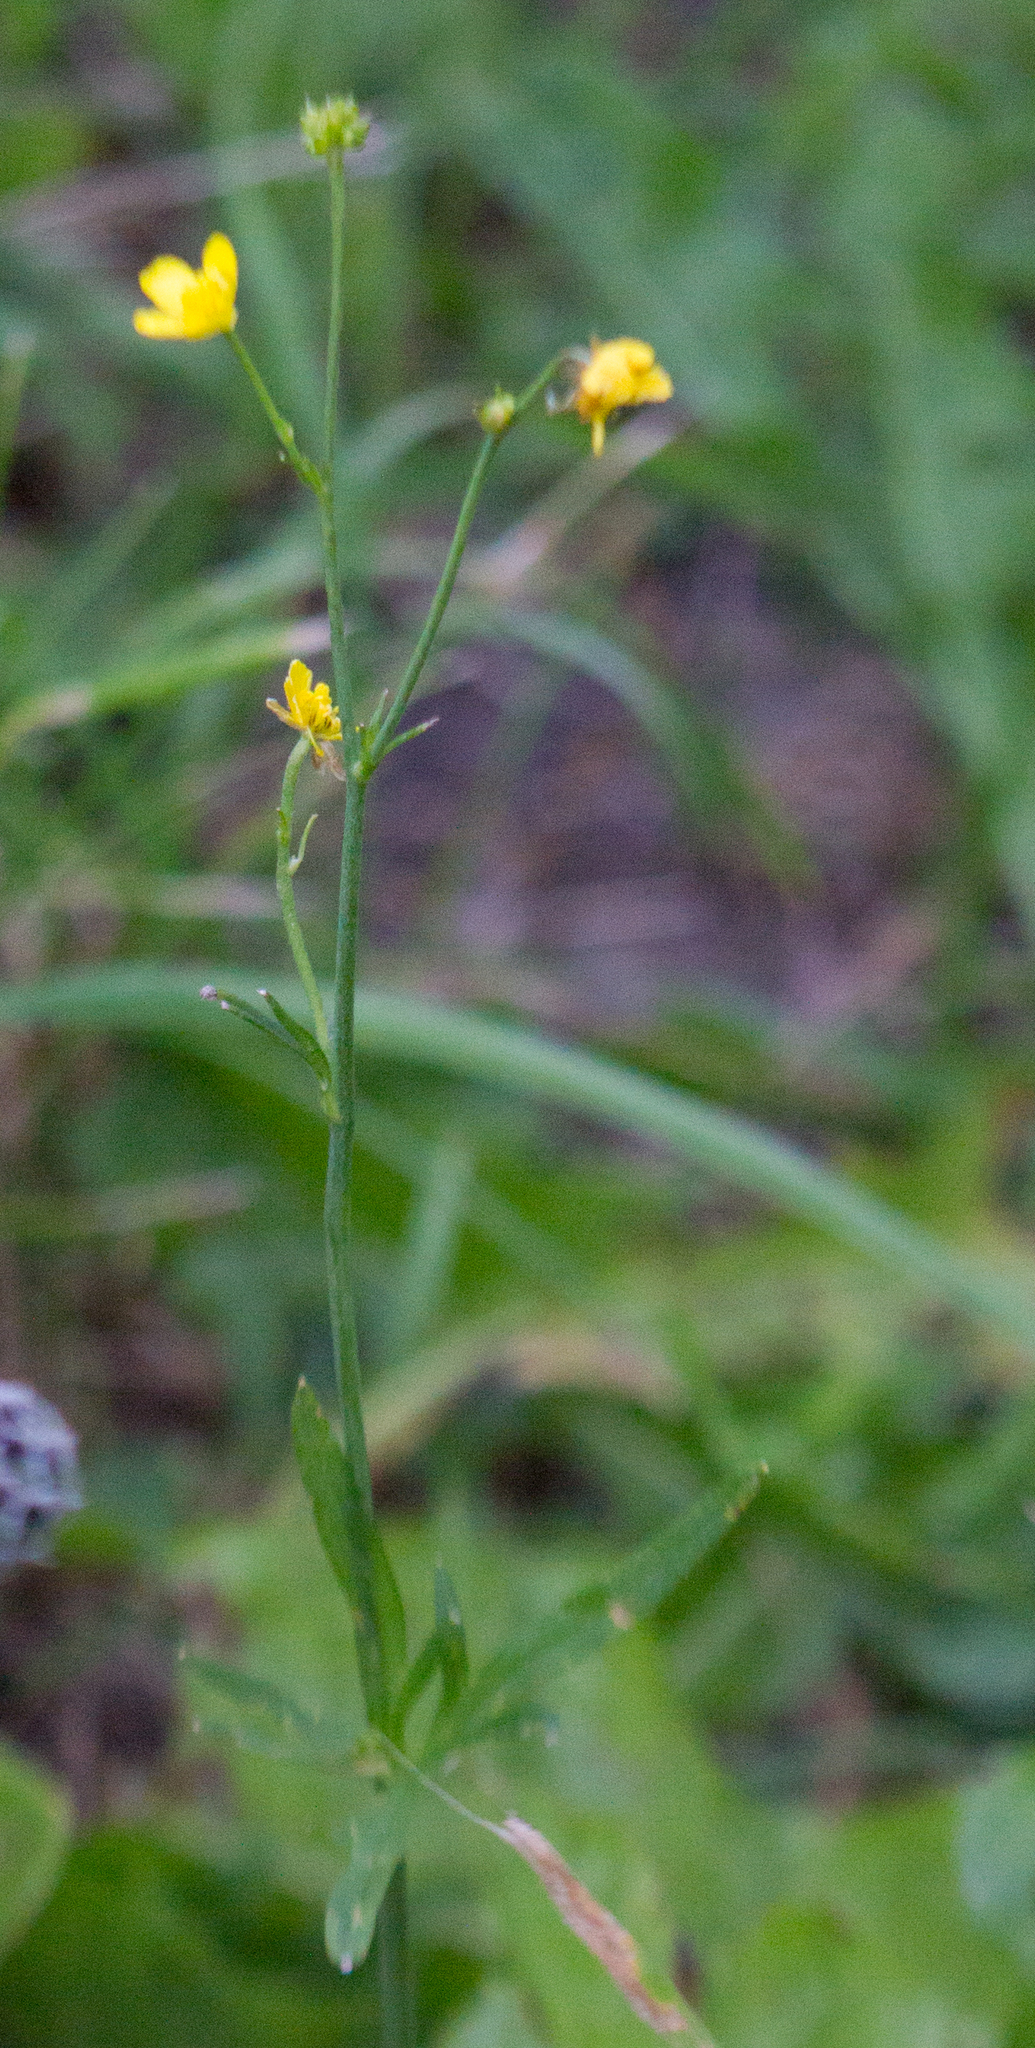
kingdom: Plantae
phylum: Tracheophyta
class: Magnoliopsida
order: Ranunculales
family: Ranunculaceae
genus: Ranunculus
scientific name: Ranunculus acris
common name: Meadow buttercup
